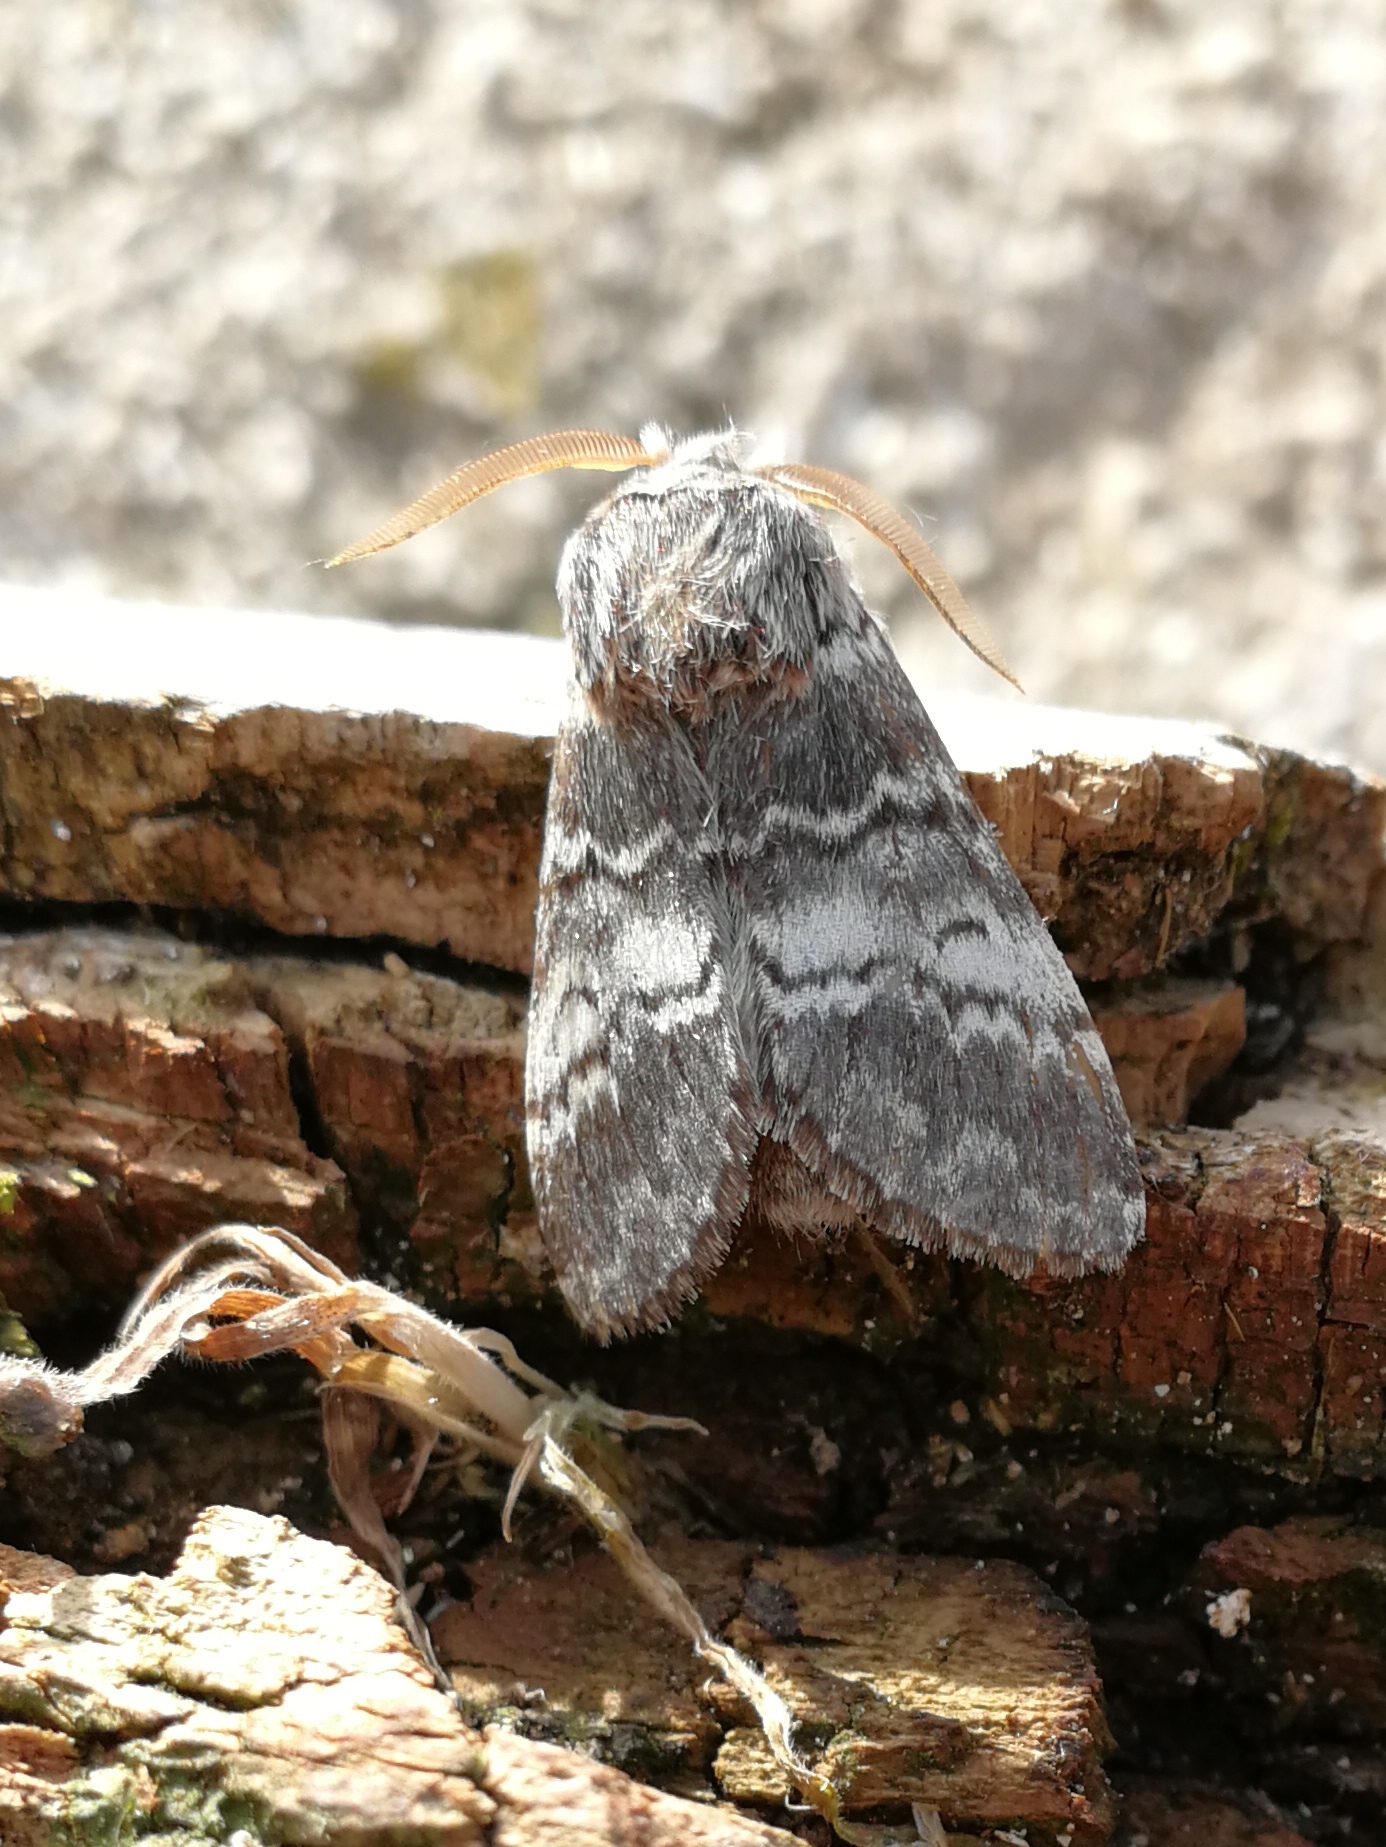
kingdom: Animalia
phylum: Arthropoda
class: Insecta
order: Lepidoptera
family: Notodontidae
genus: Drymonia
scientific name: Drymonia ruficornis
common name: Lunar marbled brown
